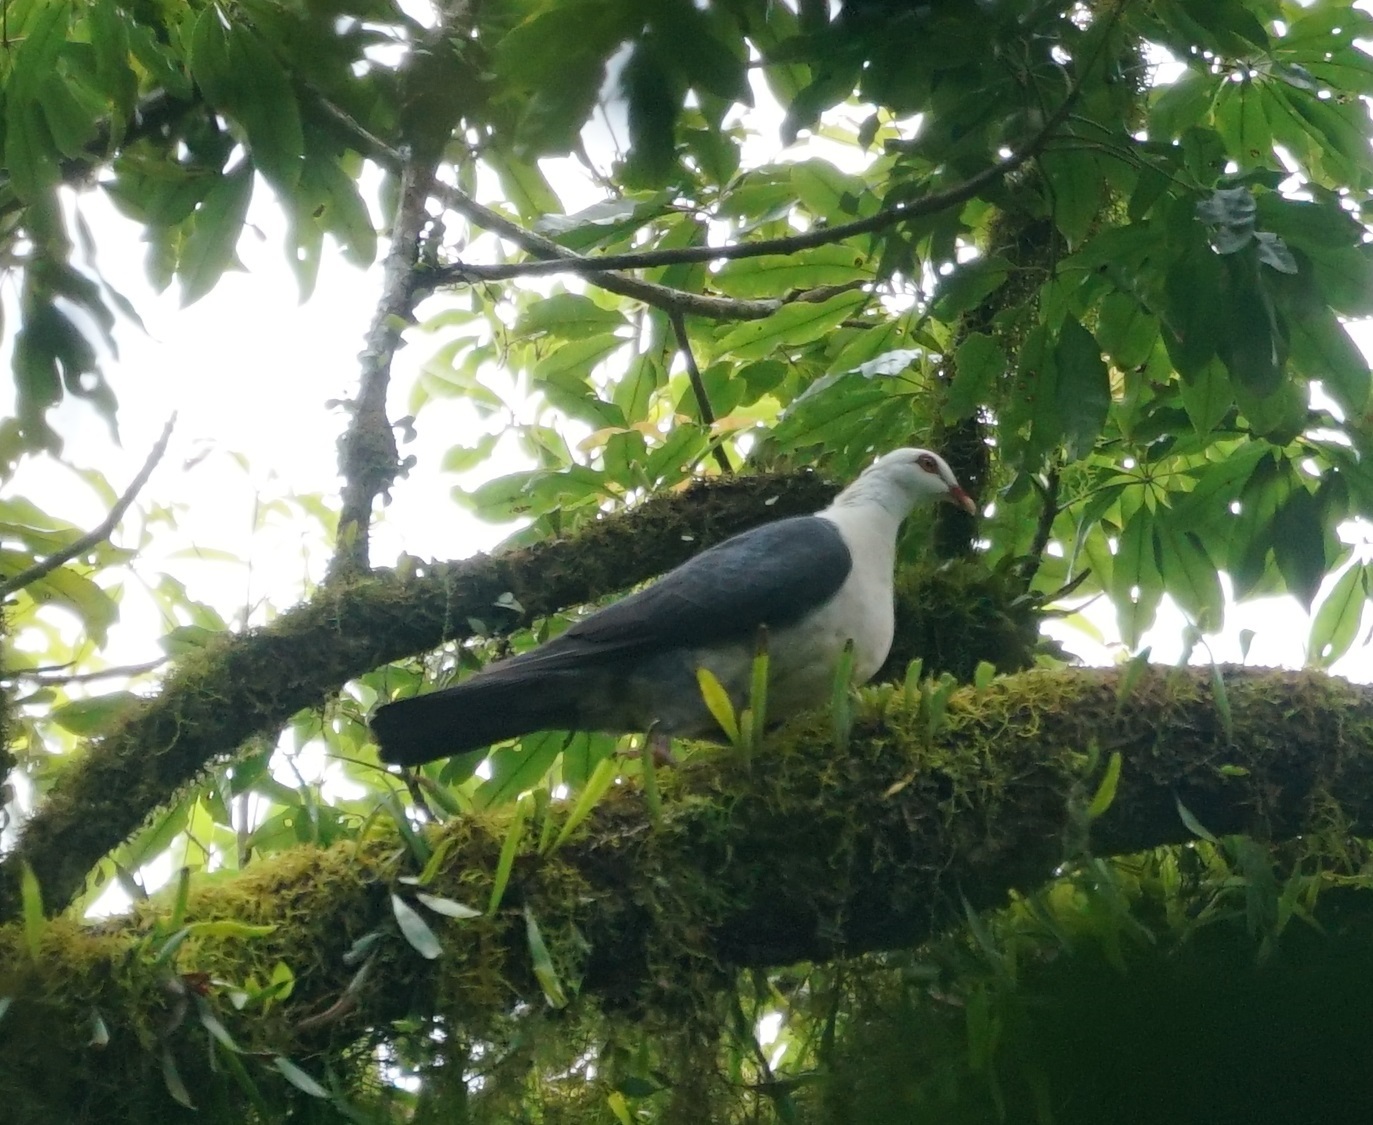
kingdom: Animalia
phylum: Chordata
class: Aves
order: Columbiformes
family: Columbidae
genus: Columba
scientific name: Columba leucomela
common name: White-headed pigeon
